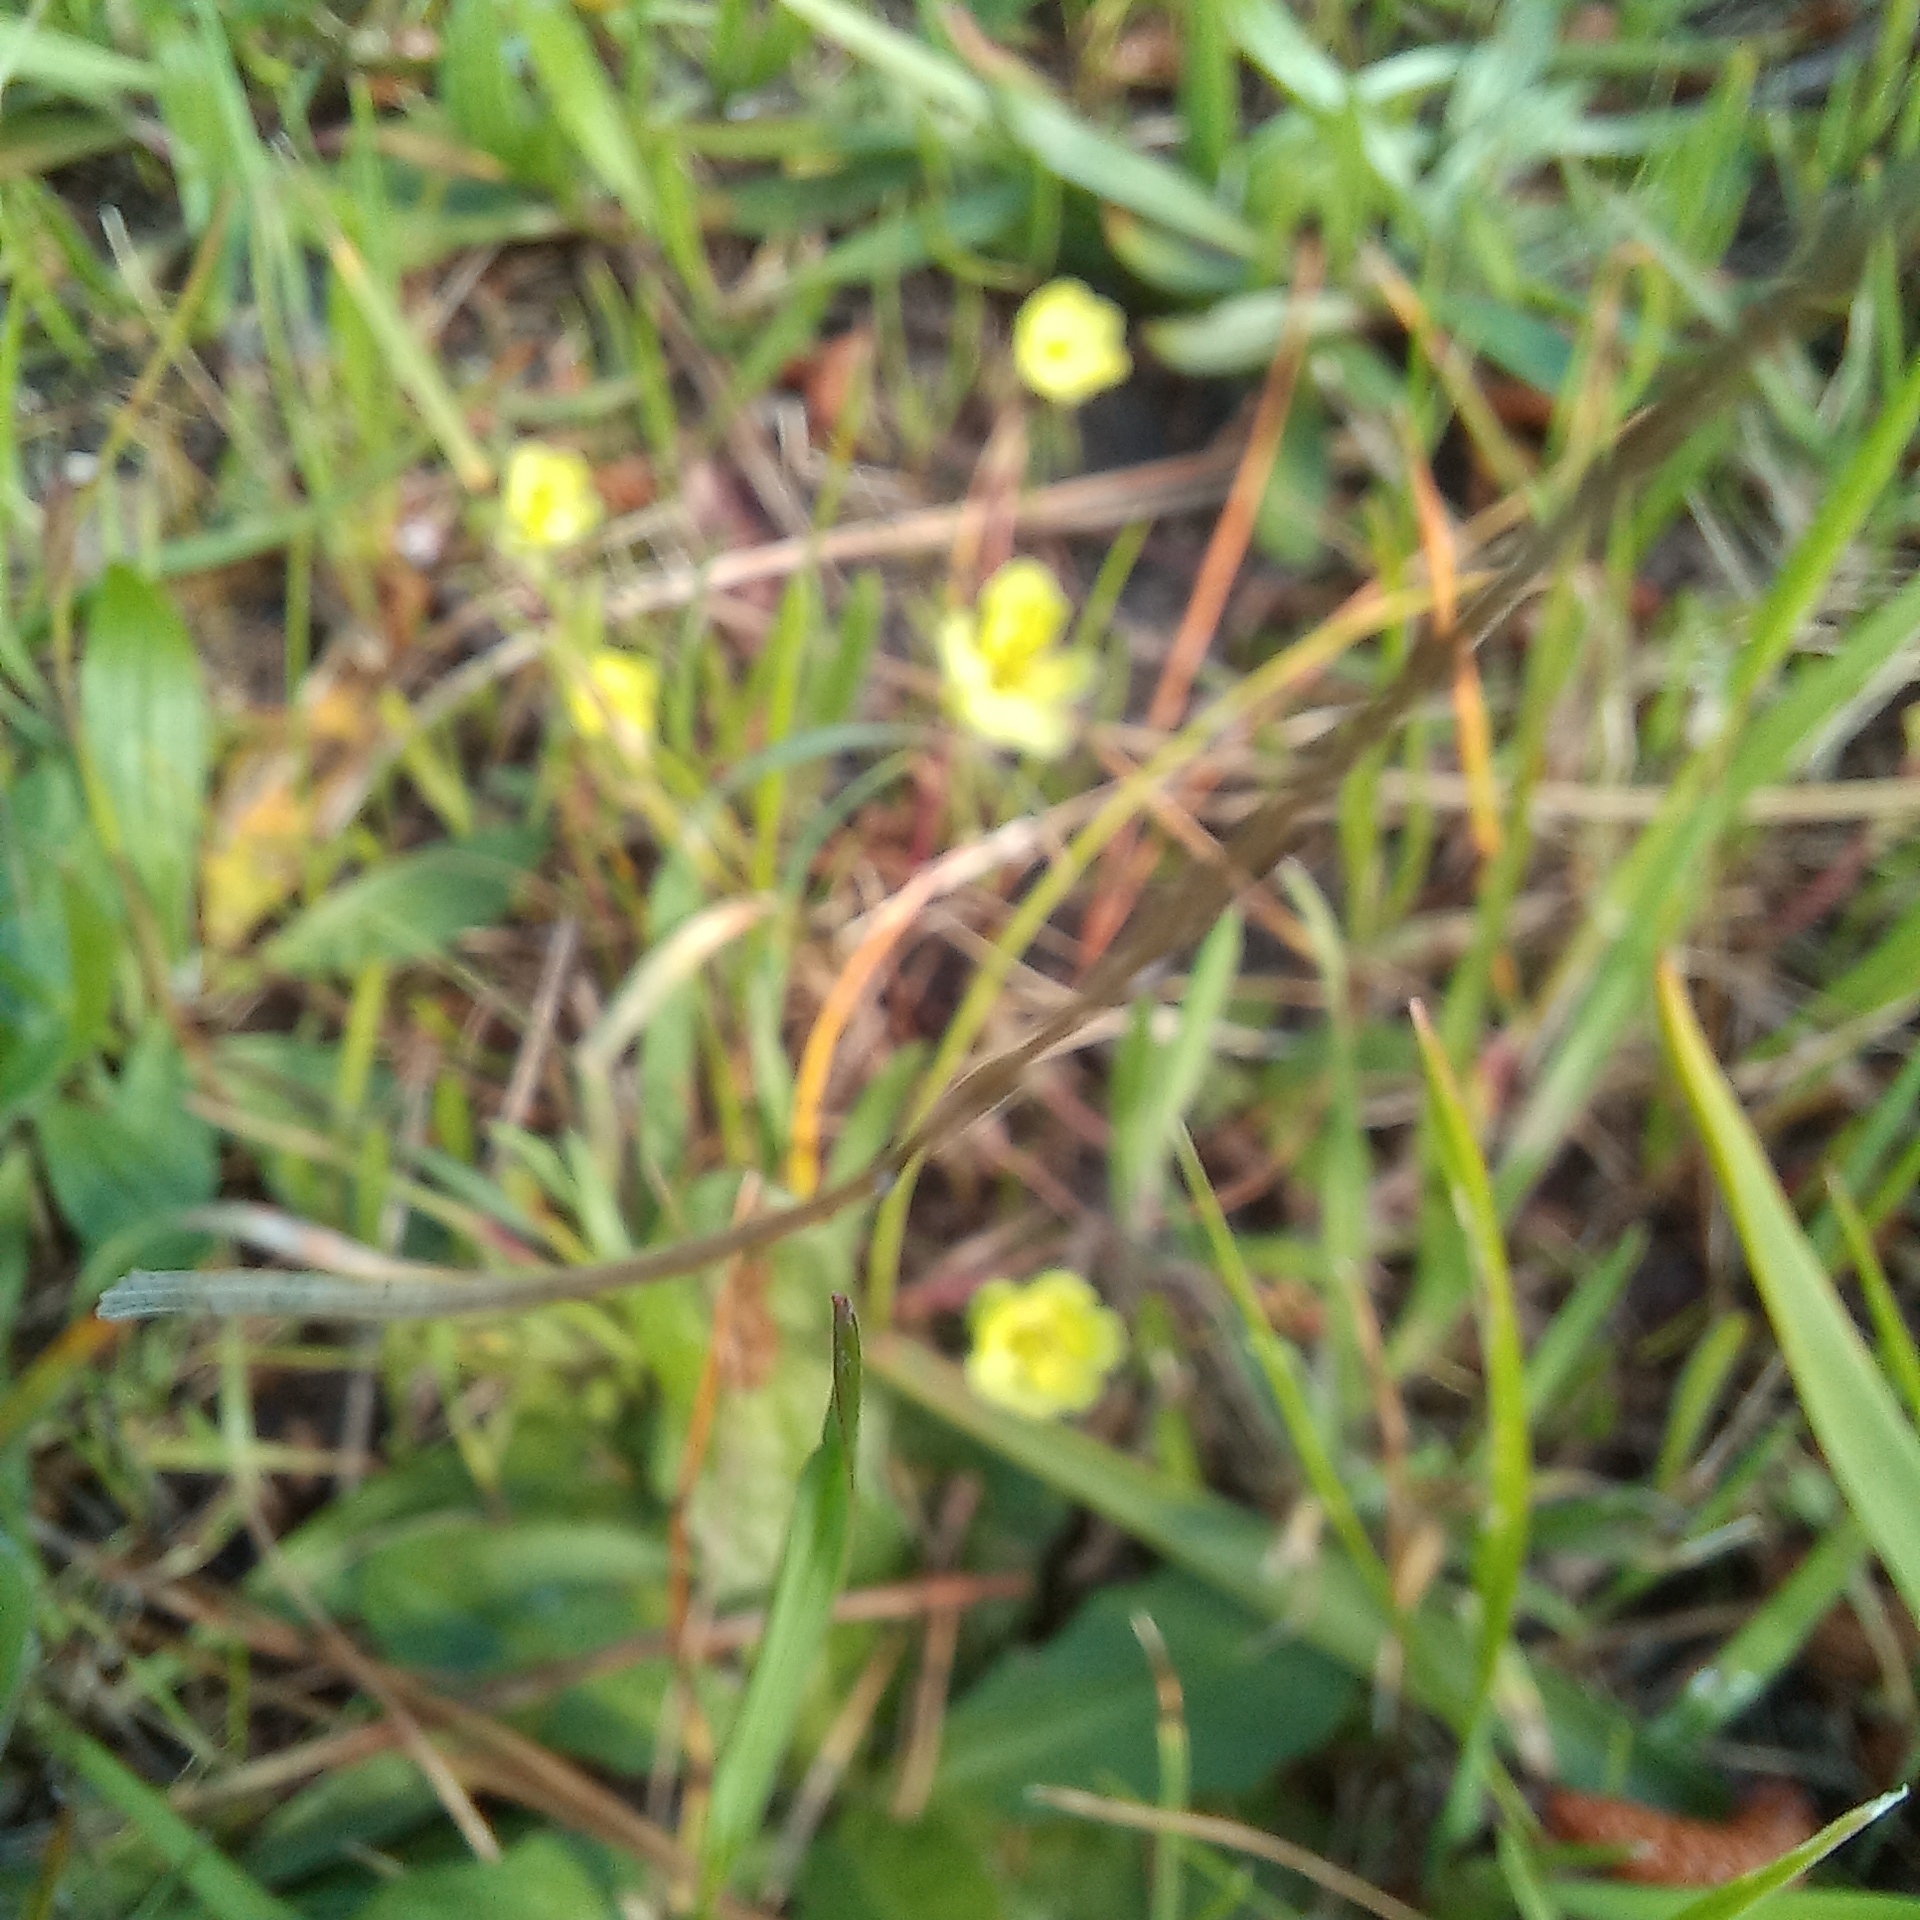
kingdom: Plantae
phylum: Tracheophyta
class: Magnoliopsida
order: Malpighiales
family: Euphorbiaceae
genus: Euphorbia
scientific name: Euphorbia helioscopia
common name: Sun spurge
